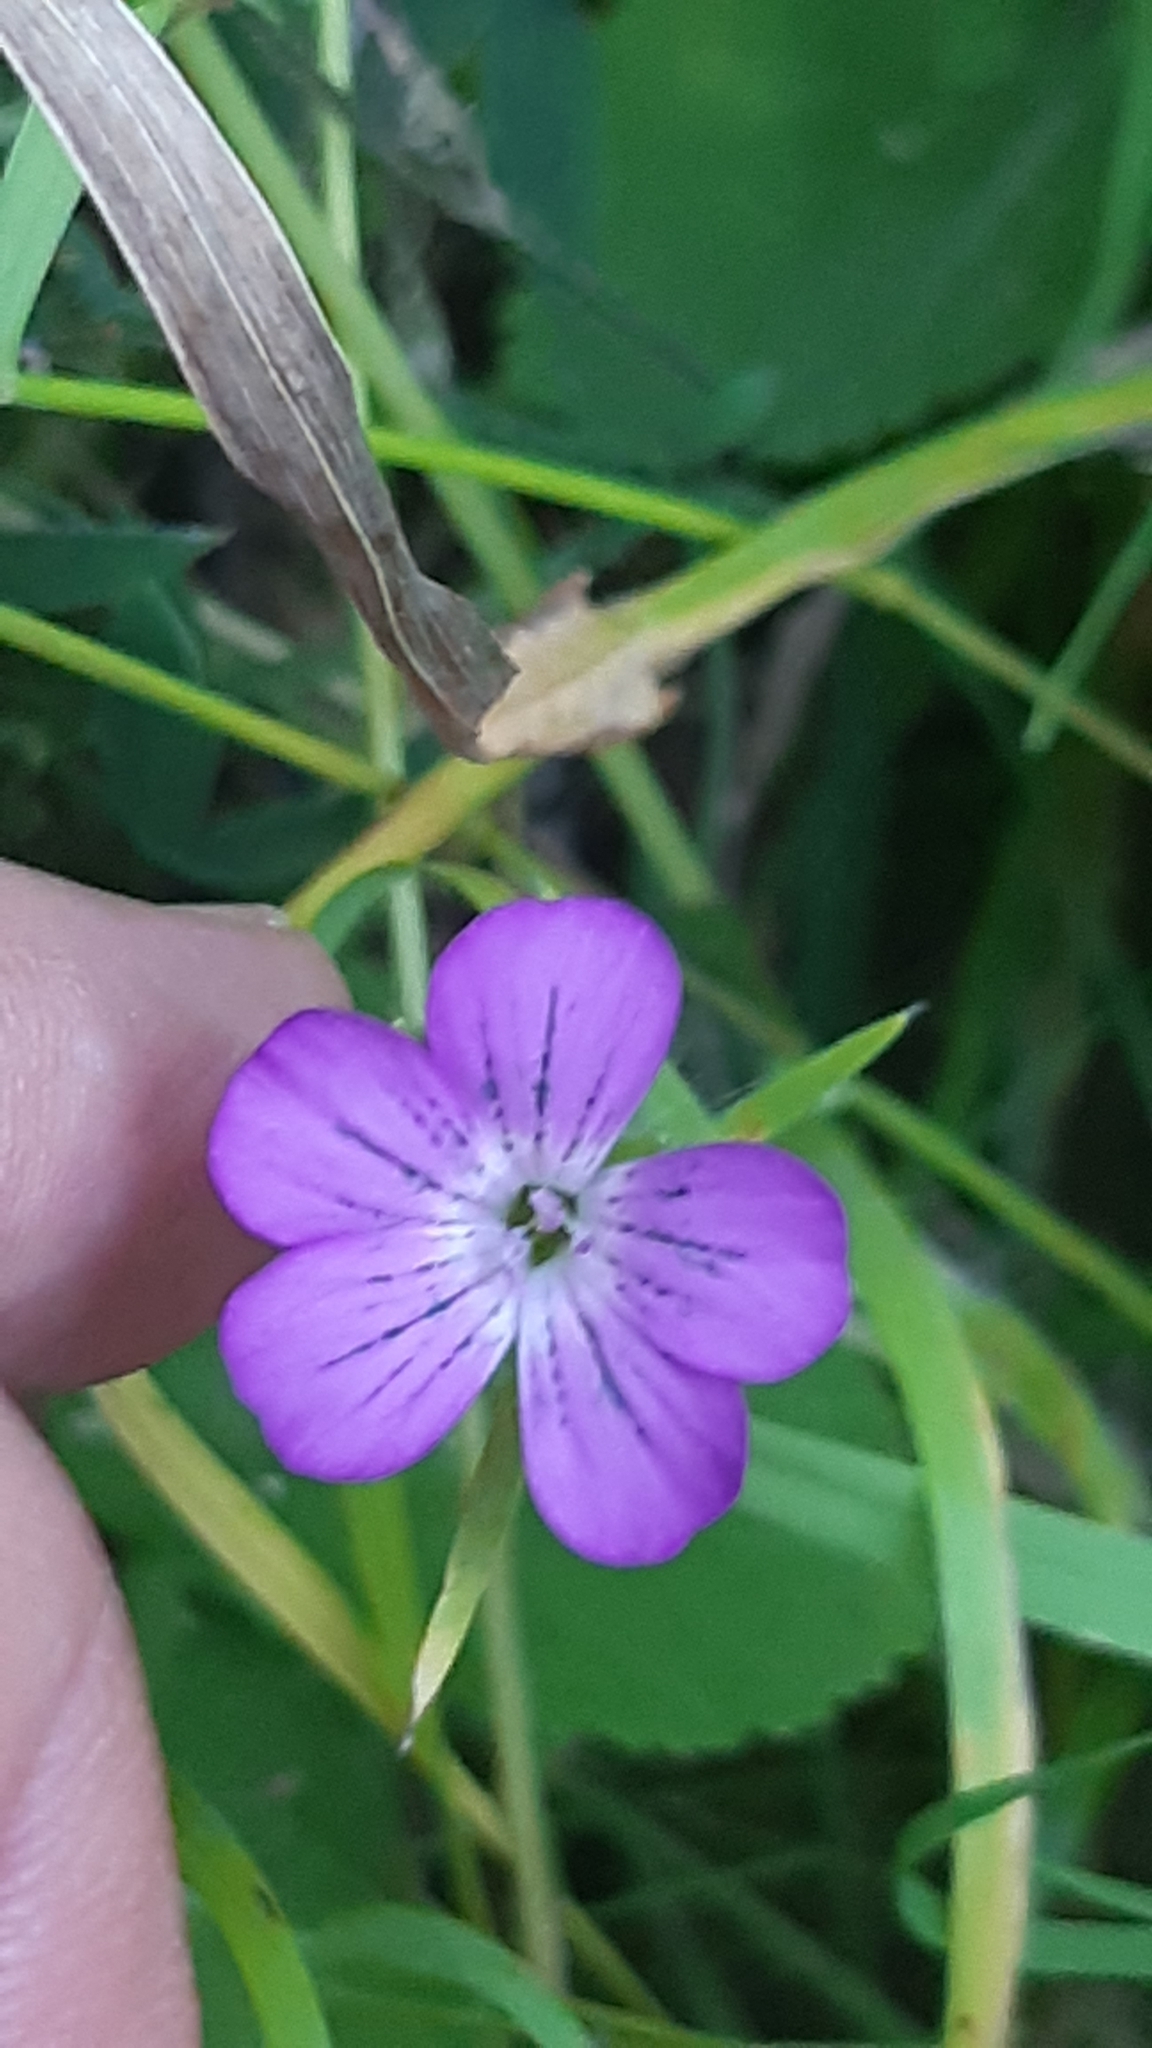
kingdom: Plantae
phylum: Tracheophyta
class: Magnoliopsida
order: Caryophyllales
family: Caryophyllaceae
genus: Agrostemma
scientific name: Agrostemma githago
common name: Common corncockle
